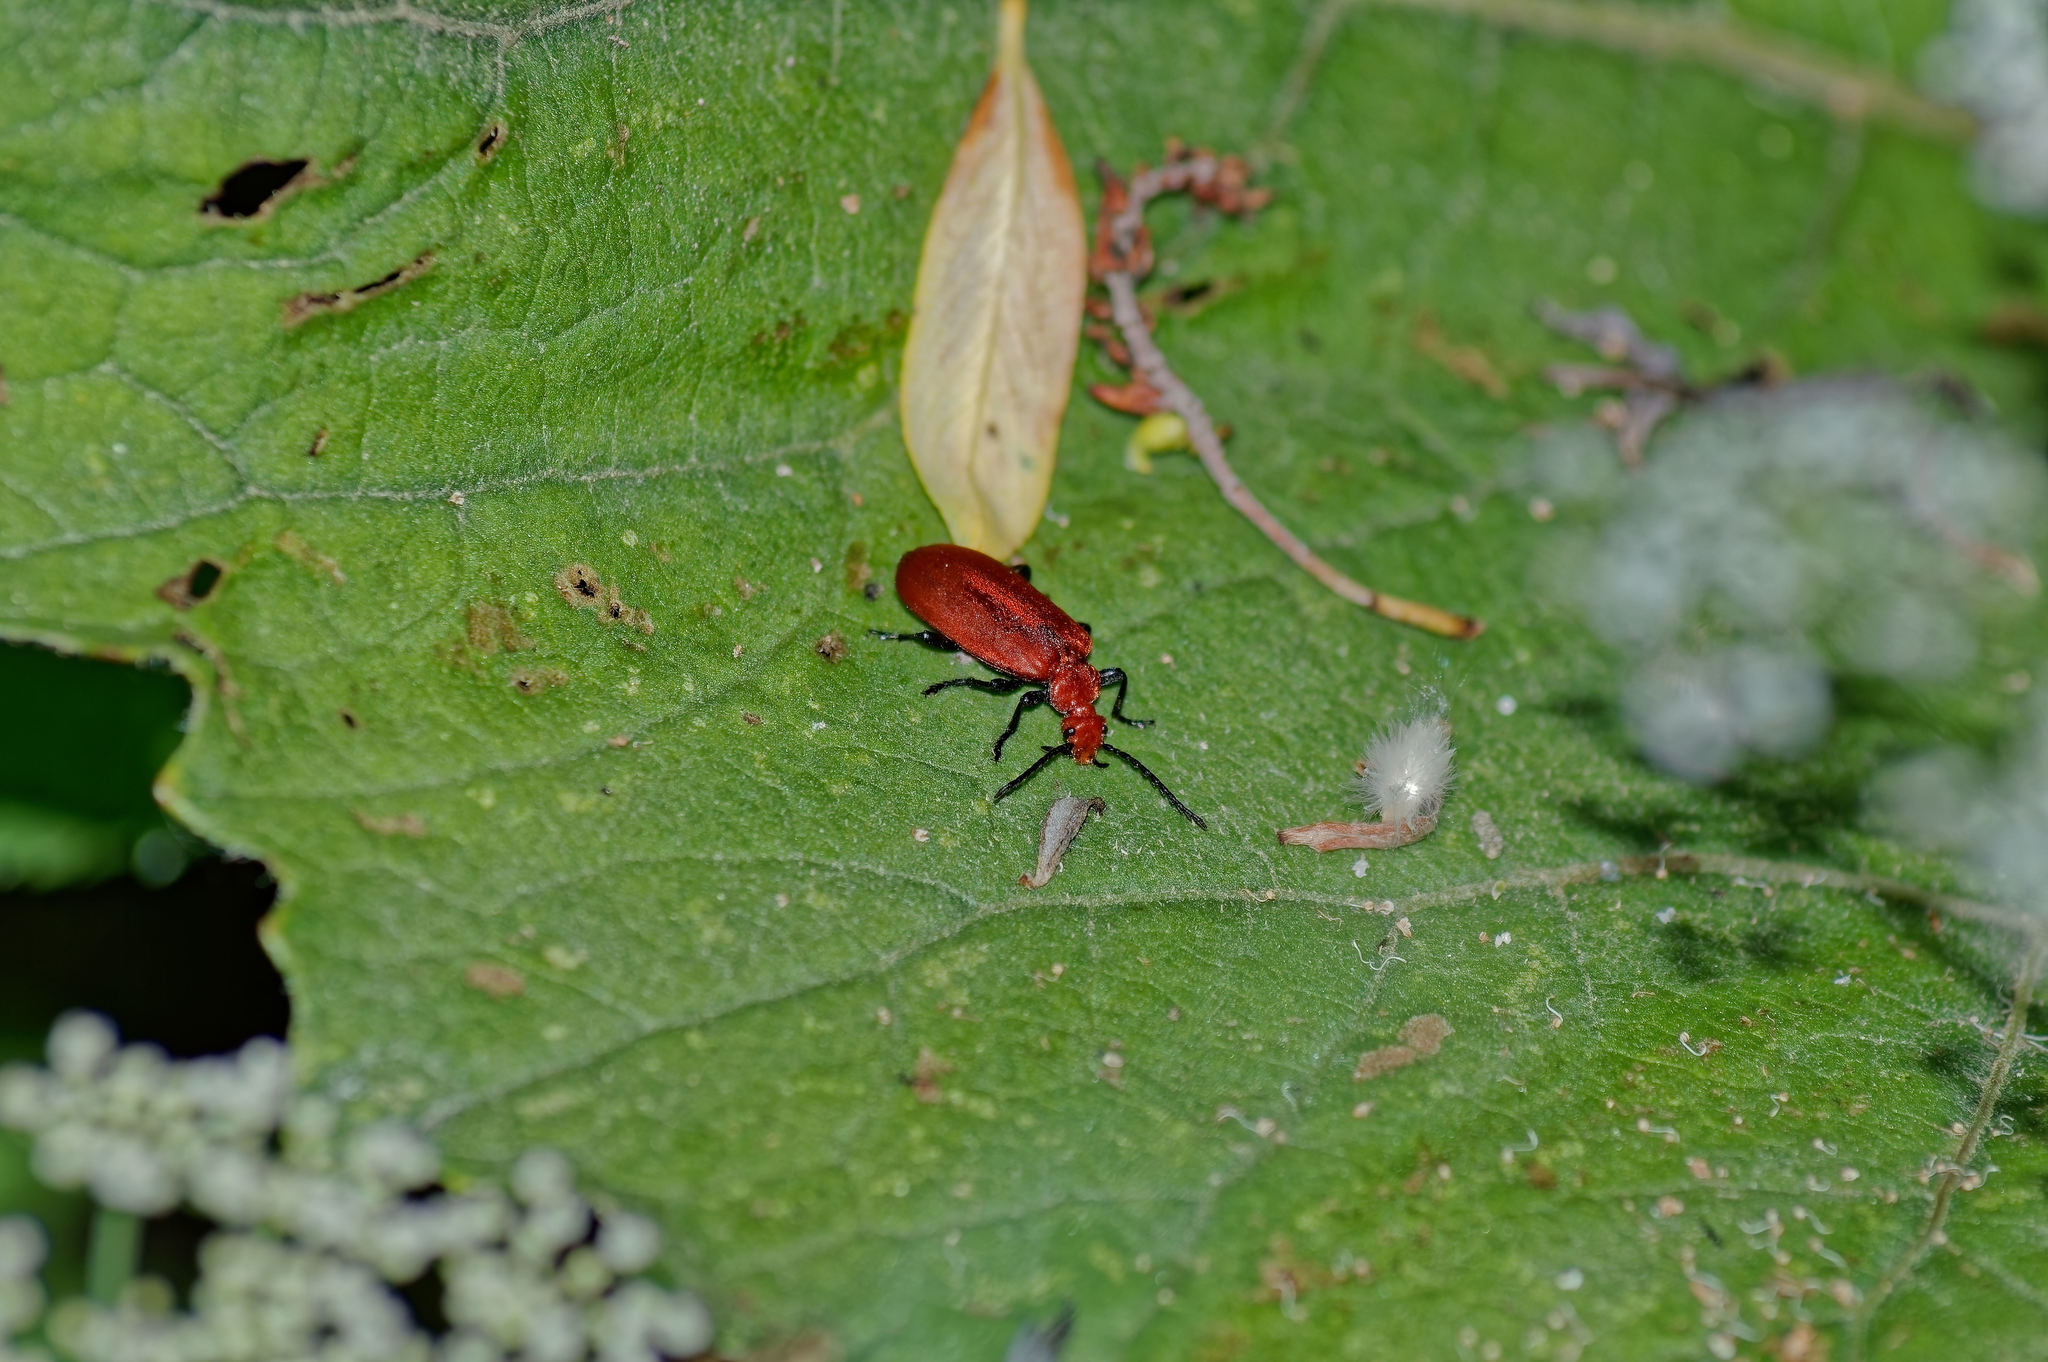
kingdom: Animalia
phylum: Arthropoda
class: Insecta
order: Coleoptera
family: Pyrochroidae
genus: Pyrochroa
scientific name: Pyrochroa serraticornis
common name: Red-headed cardinal beetle
